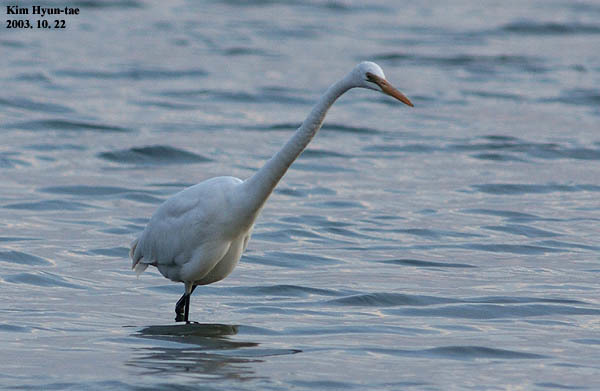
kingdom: Animalia
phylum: Chordata
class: Aves
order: Pelecaniformes
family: Ardeidae
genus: Ardea
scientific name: Ardea alba
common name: Great egret
